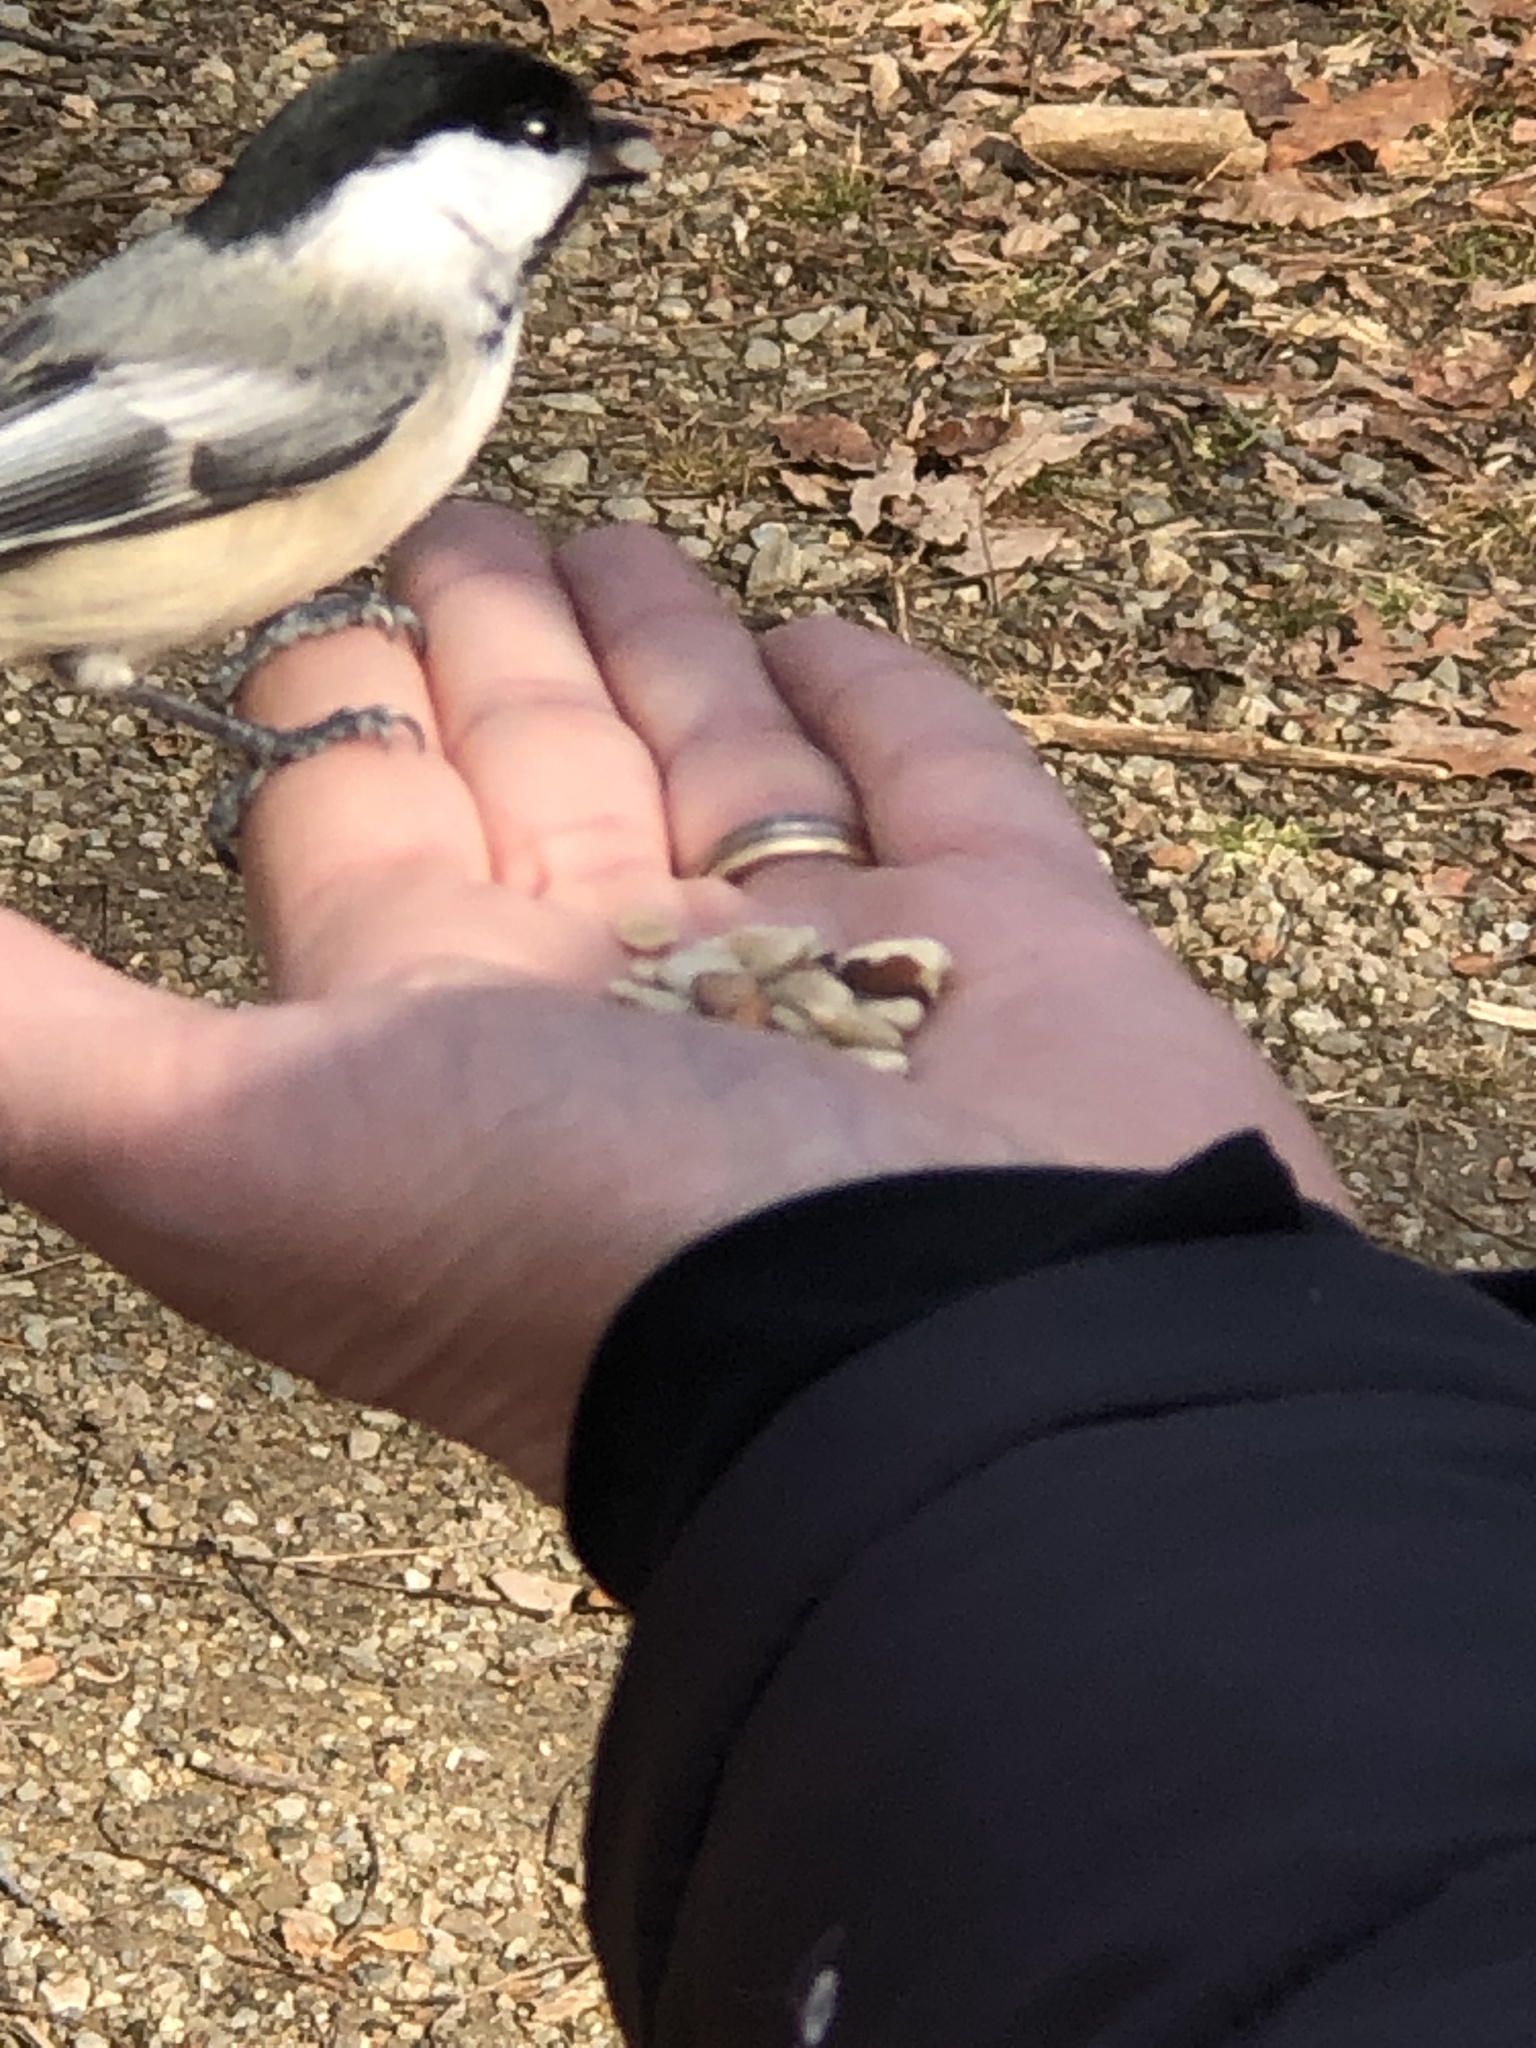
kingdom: Animalia
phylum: Chordata
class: Aves
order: Passeriformes
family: Paridae
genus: Poecile
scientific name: Poecile atricapillus
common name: Black-capped chickadee
